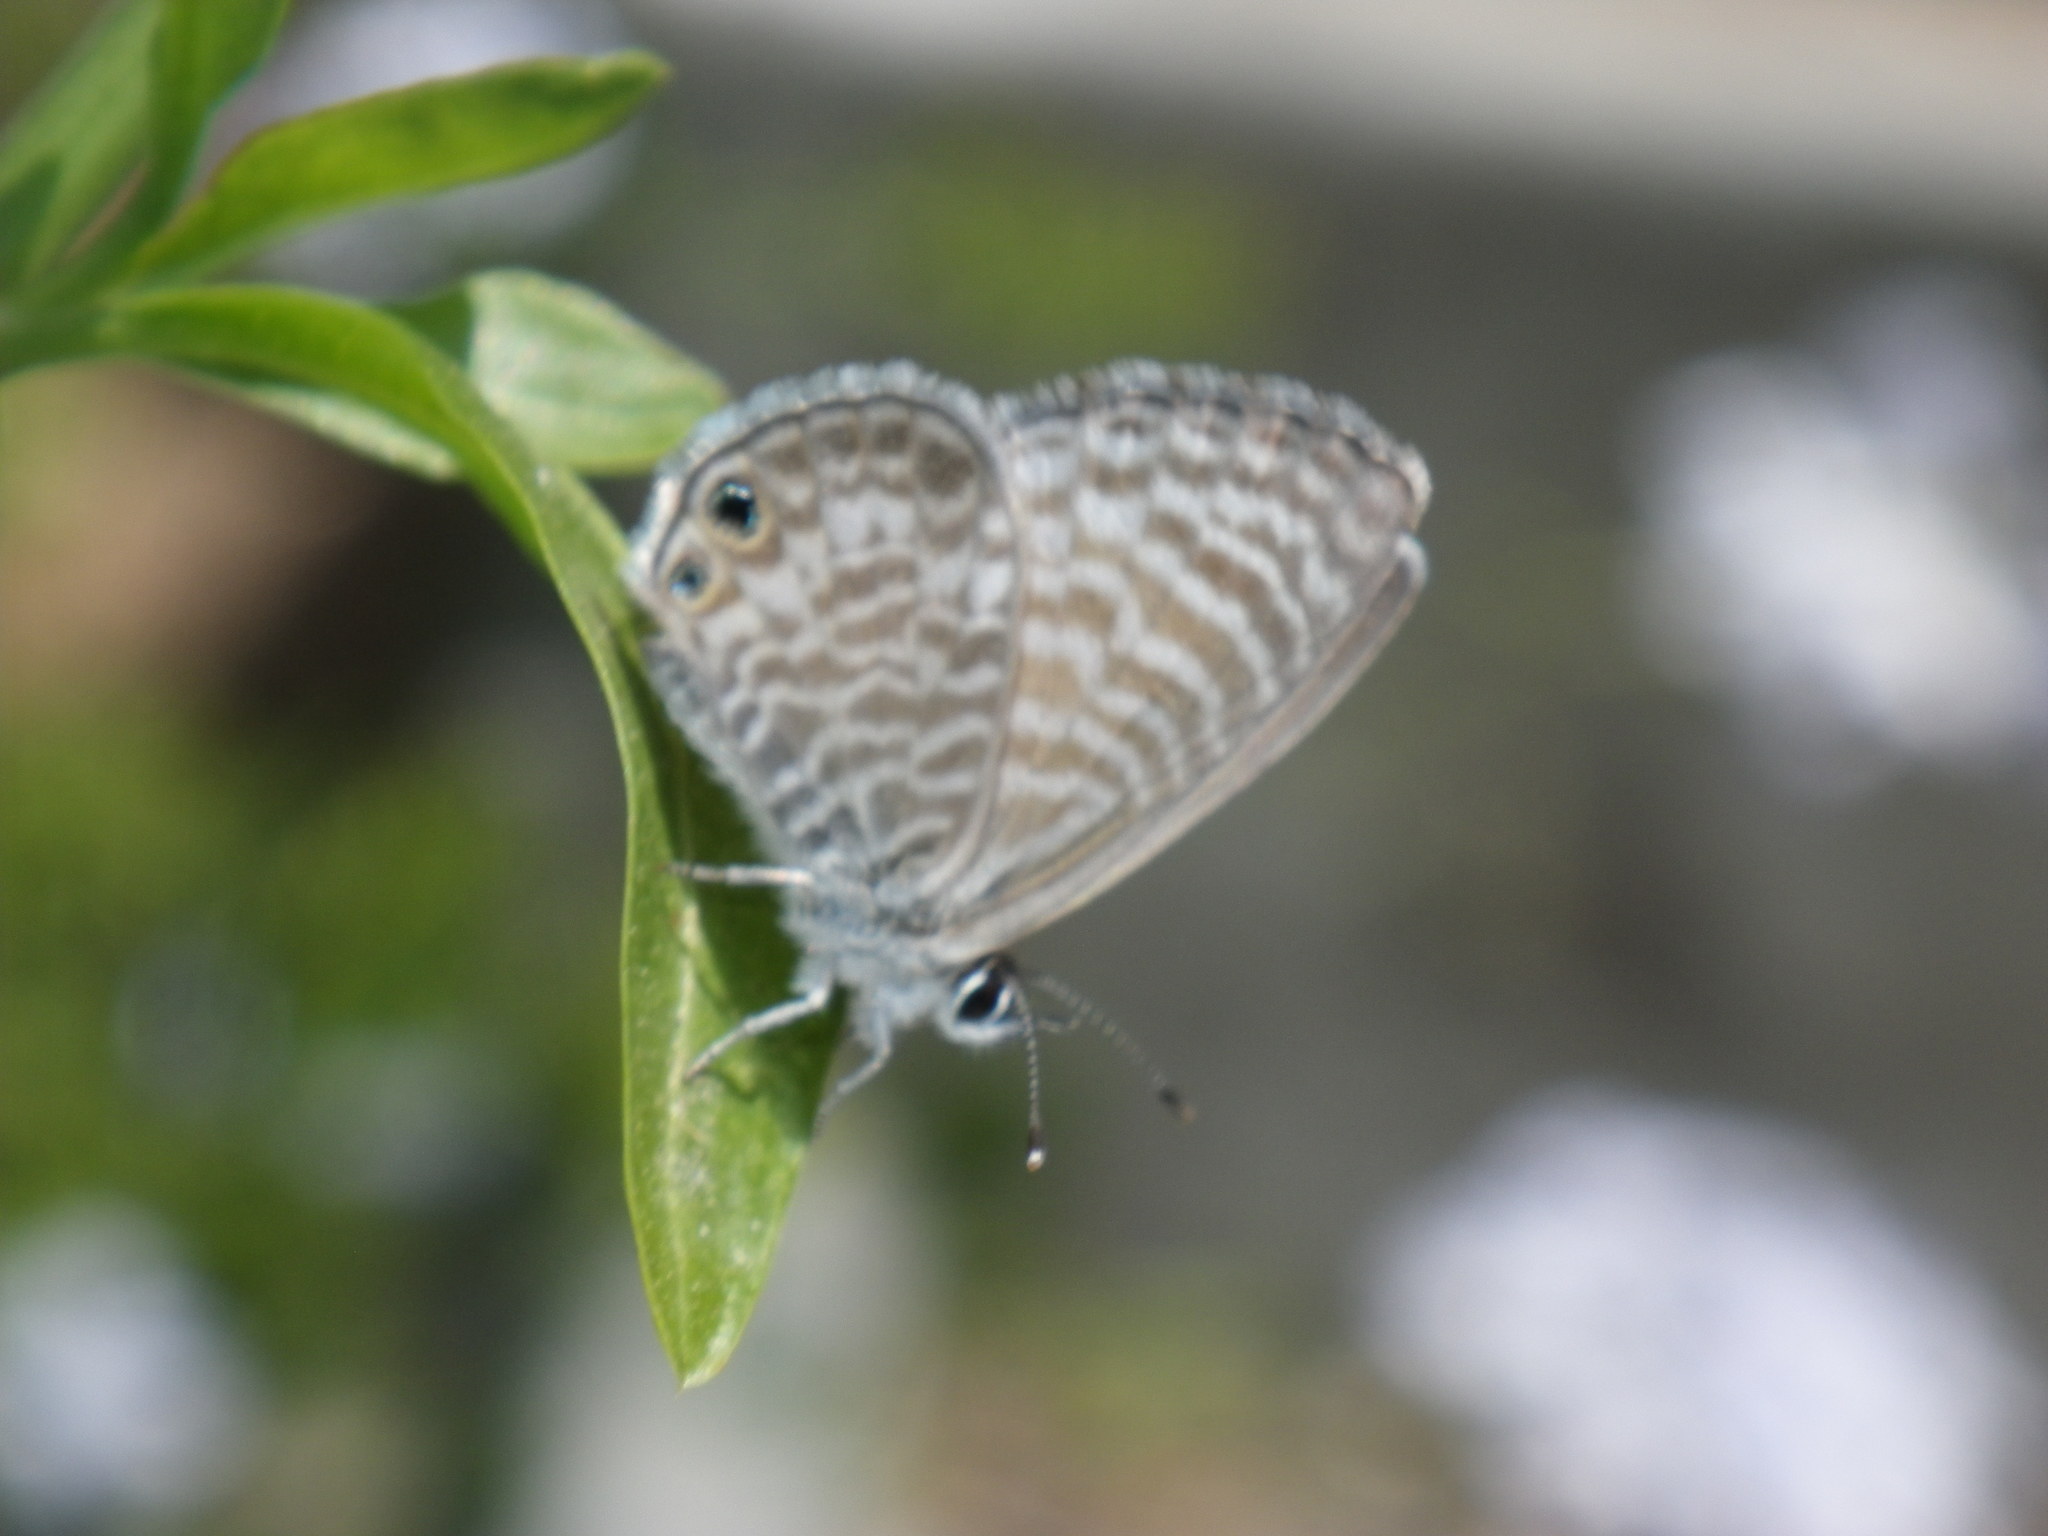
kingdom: Animalia
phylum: Arthropoda
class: Insecta
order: Lepidoptera
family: Lycaenidae
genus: Leptotes
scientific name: Leptotes marina
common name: Marine blue
